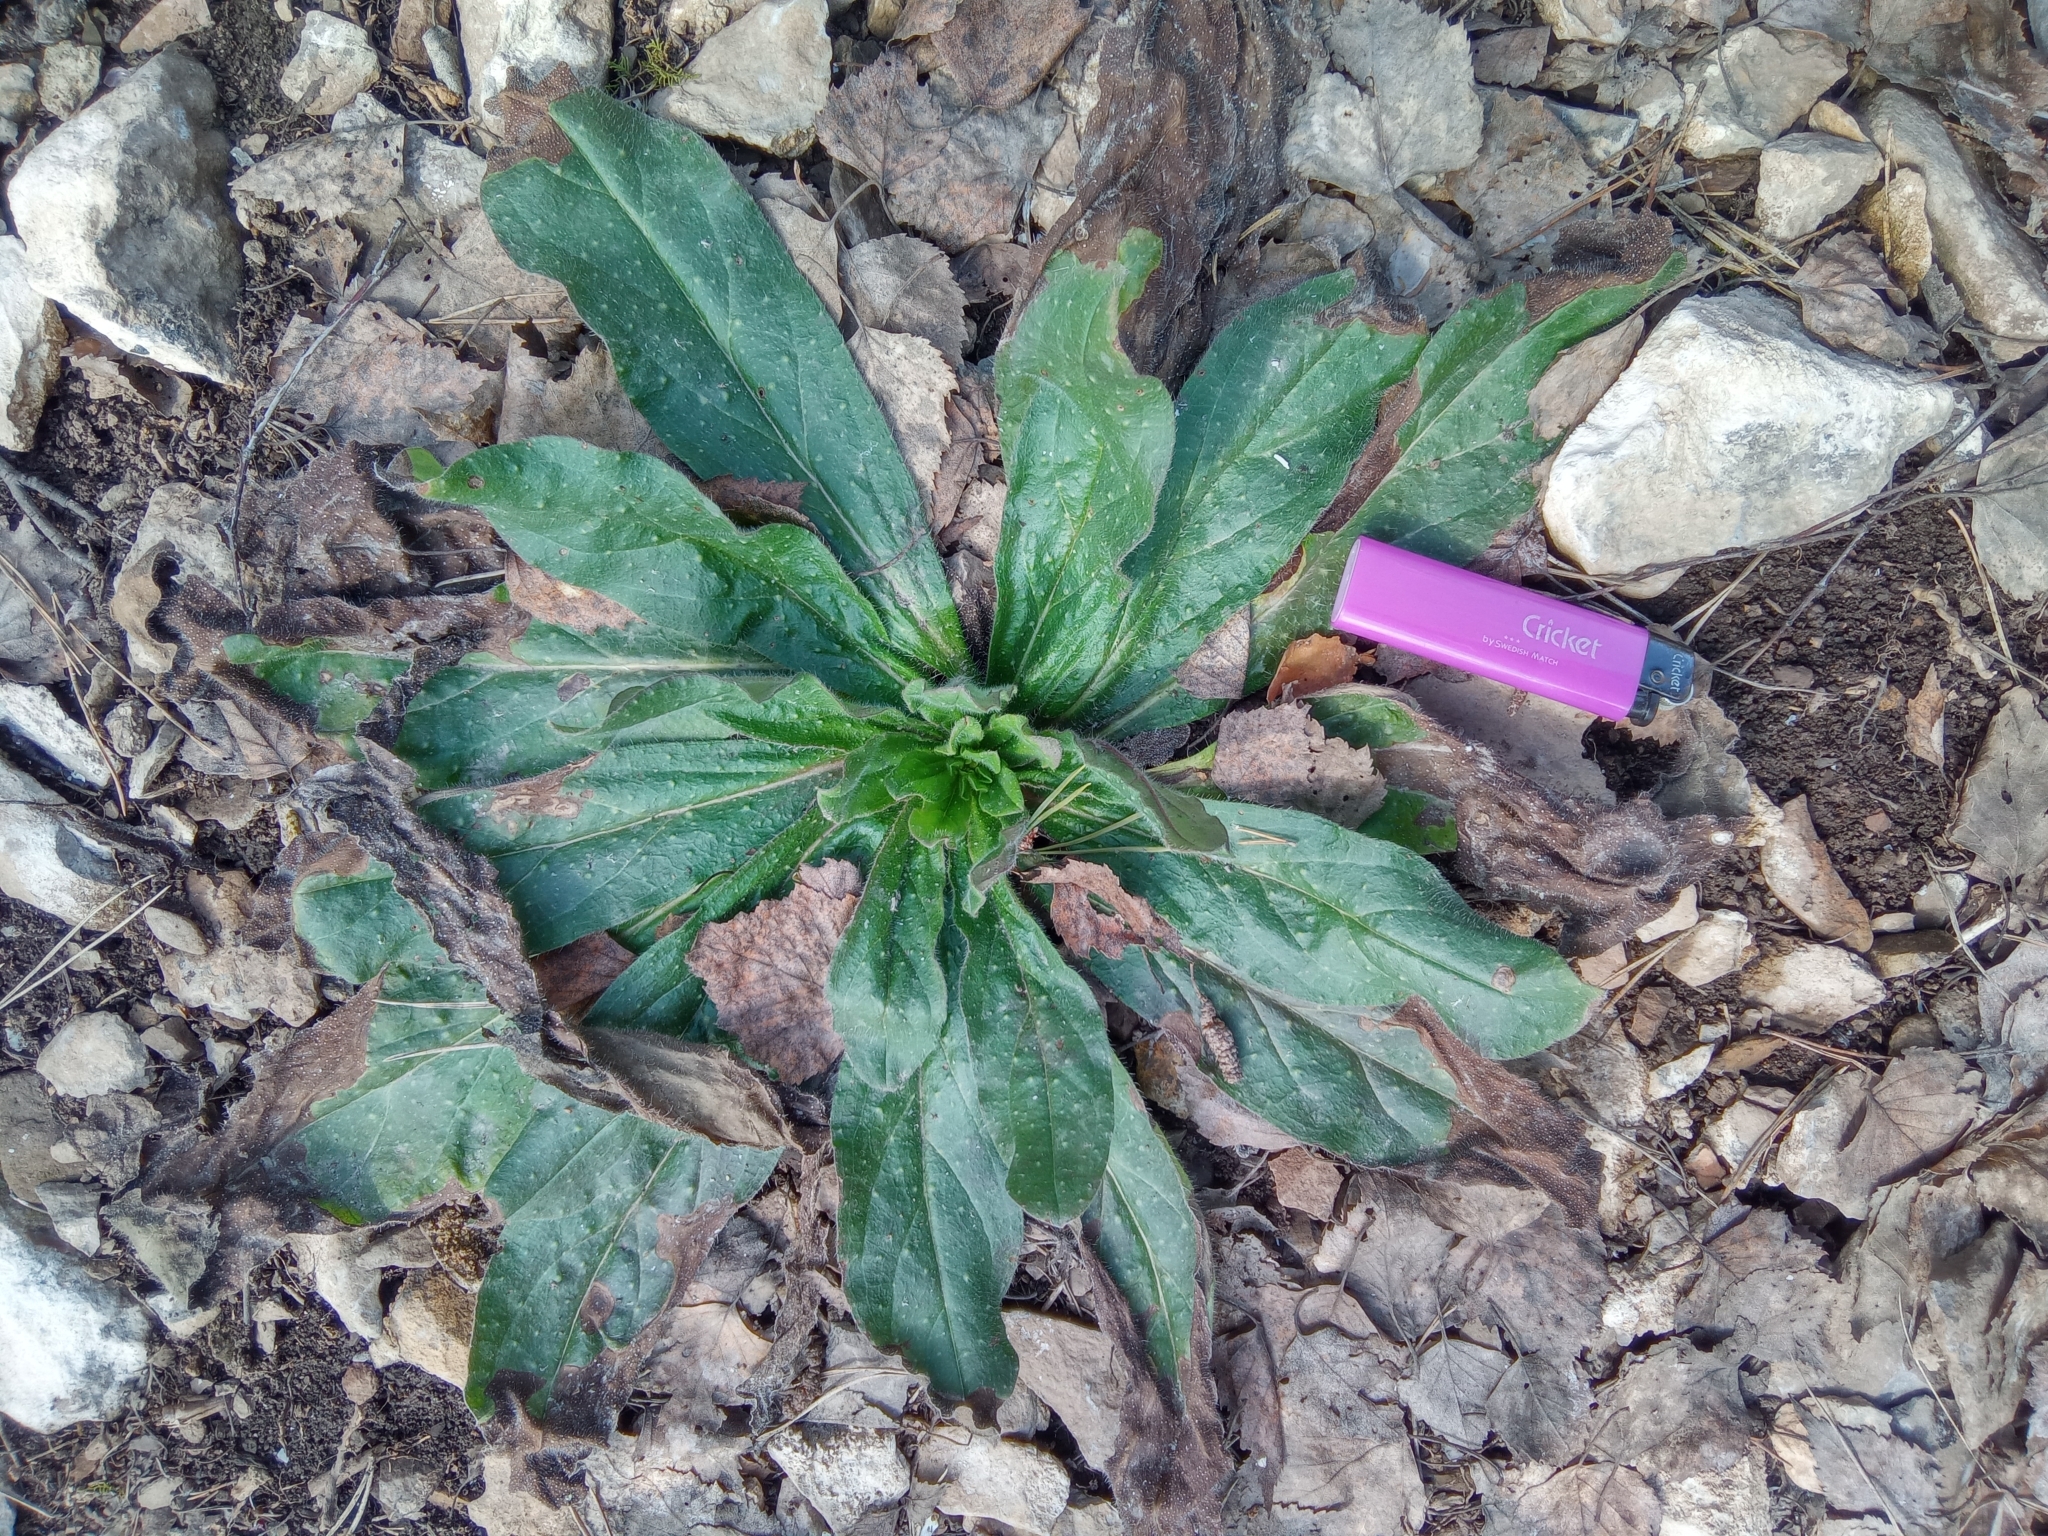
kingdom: Plantae
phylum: Tracheophyta
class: Magnoliopsida
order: Boraginales
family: Boraginaceae
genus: Echium
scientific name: Echium vulgare
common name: Common viper's bugloss
